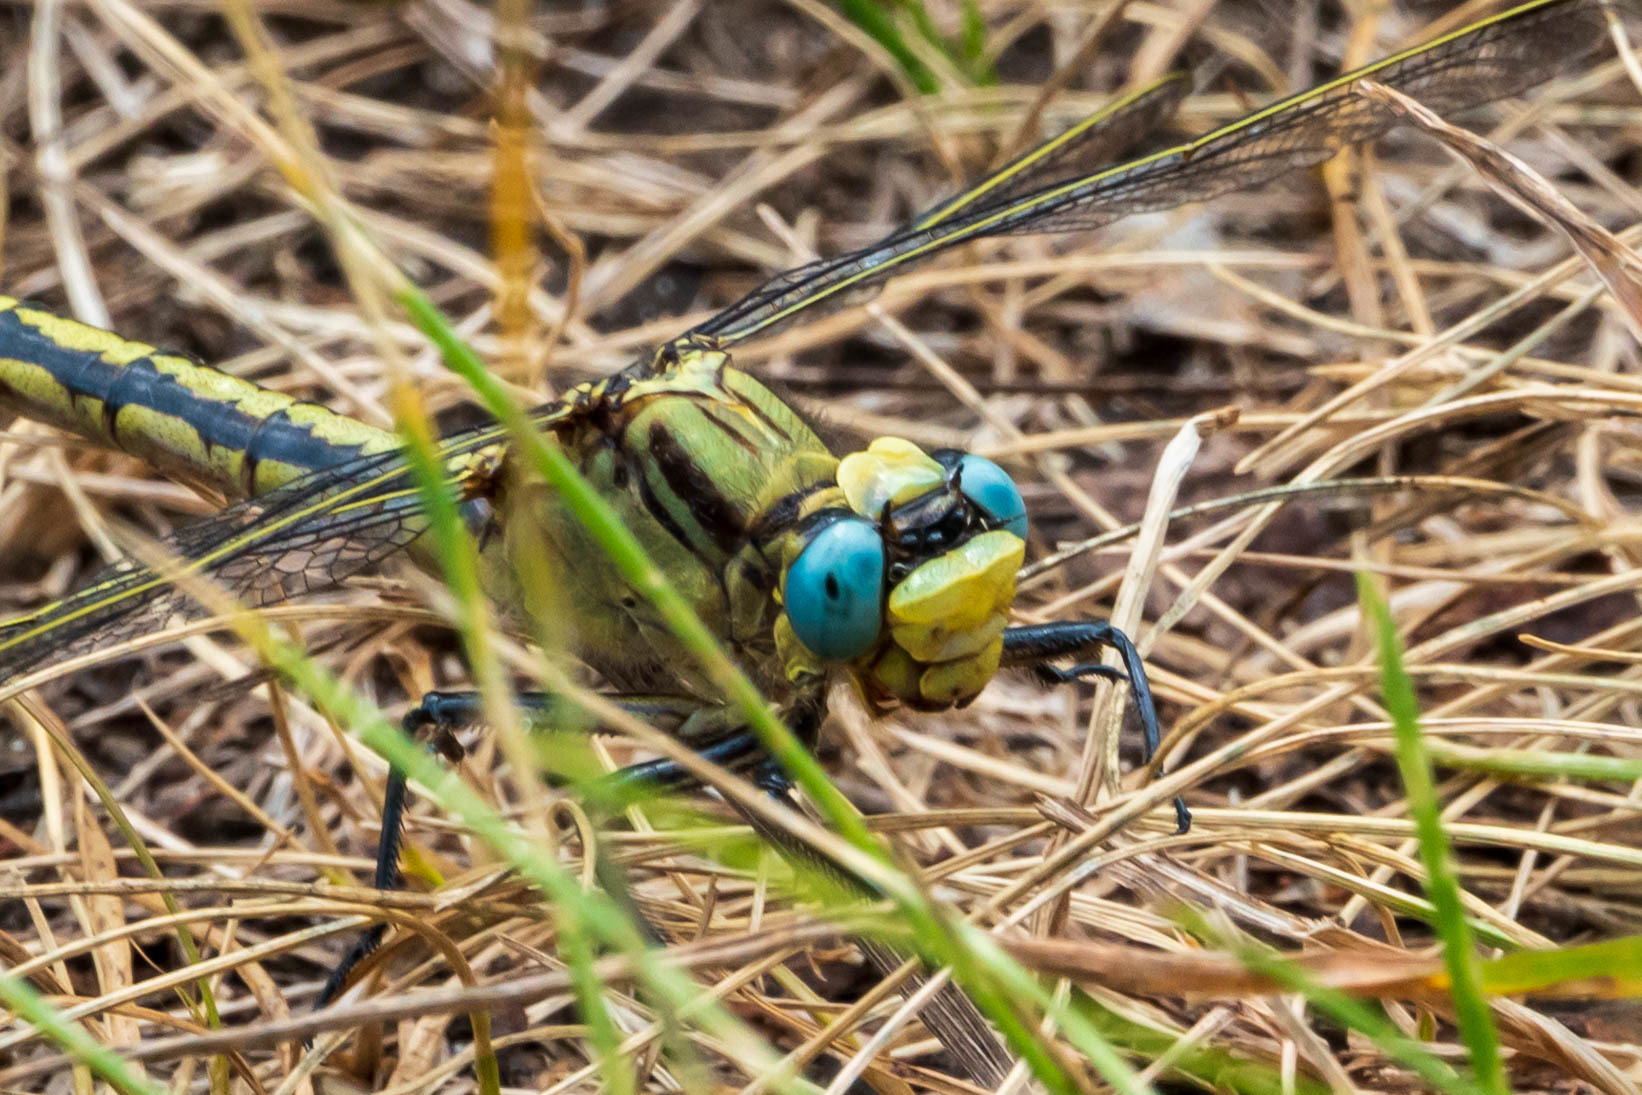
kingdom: Animalia
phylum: Arthropoda
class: Insecta
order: Odonata
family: Gomphidae
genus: Arigomphus
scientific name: Arigomphus cornutus
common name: Horned clubtail
